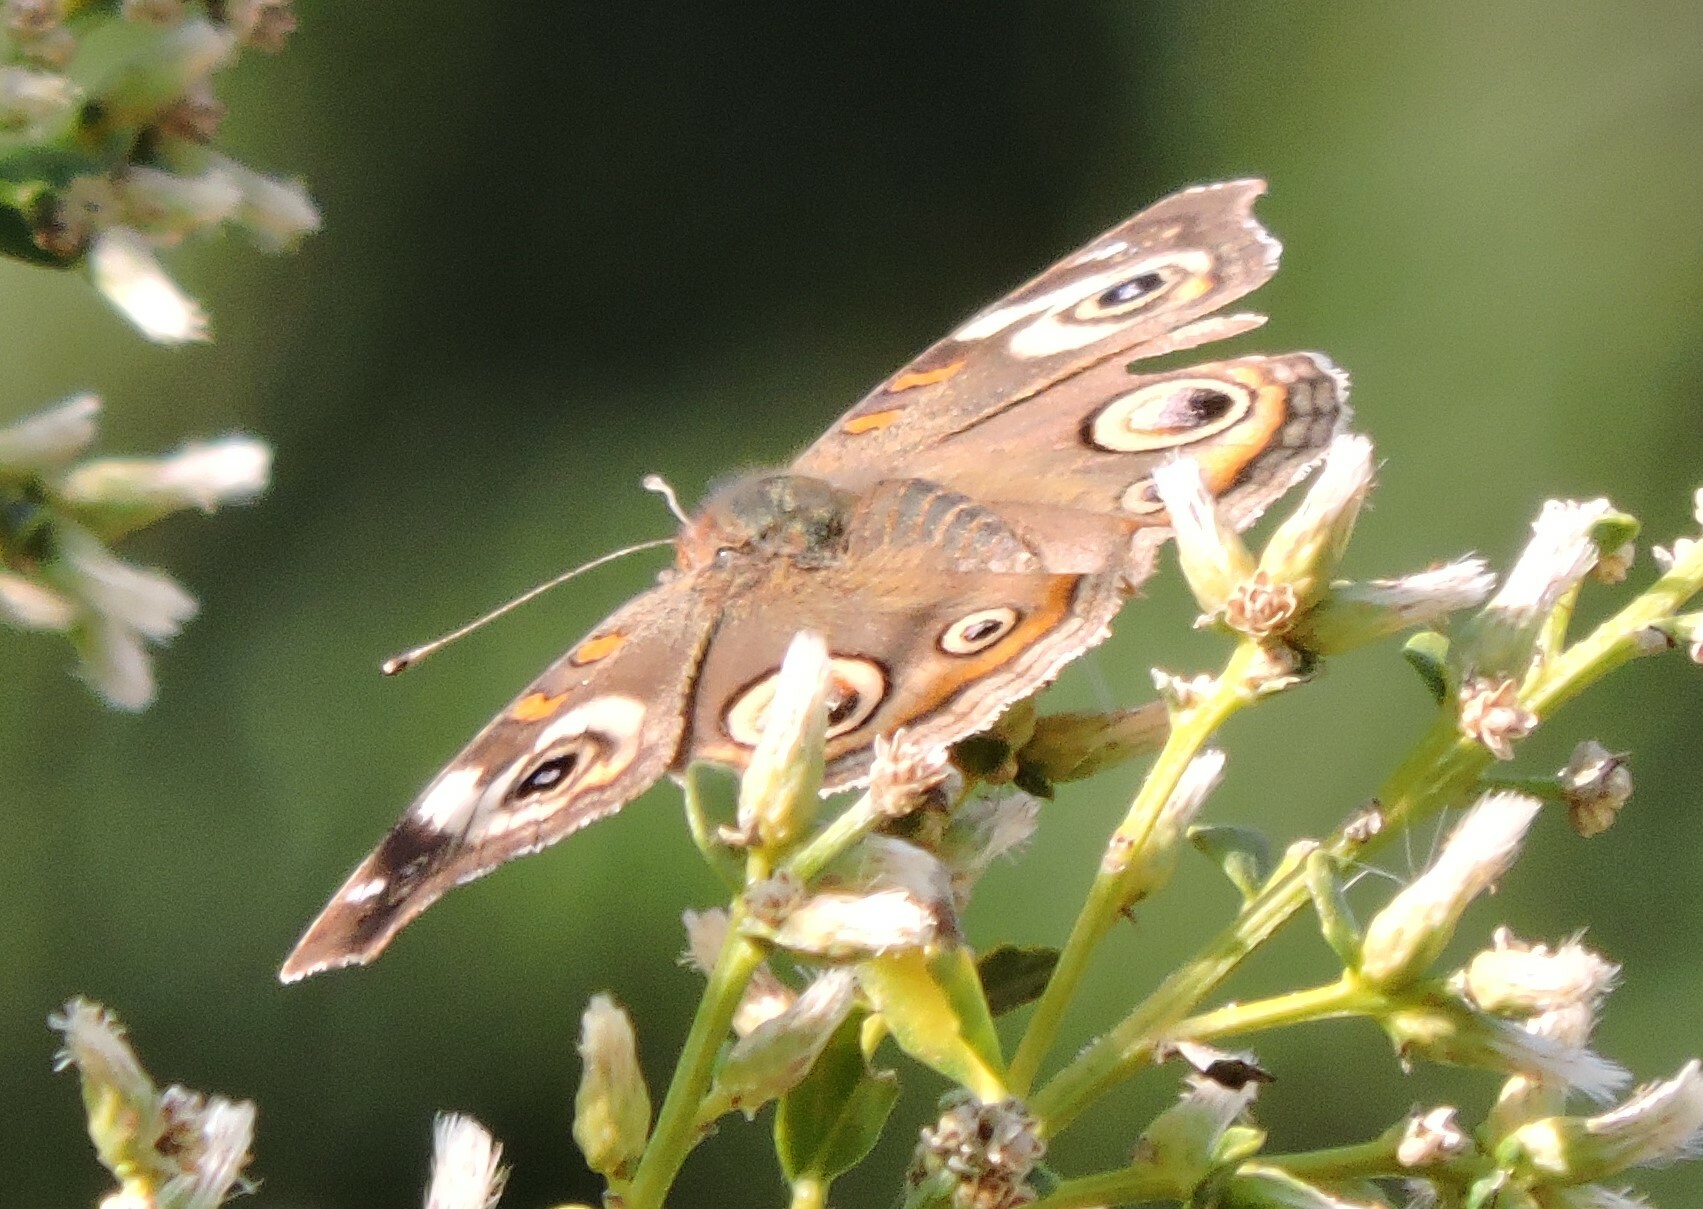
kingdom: Animalia
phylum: Arthropoda
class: Insecta
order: Lepidoptera
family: Nymphalidae
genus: Junonia
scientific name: Junonia grisea
